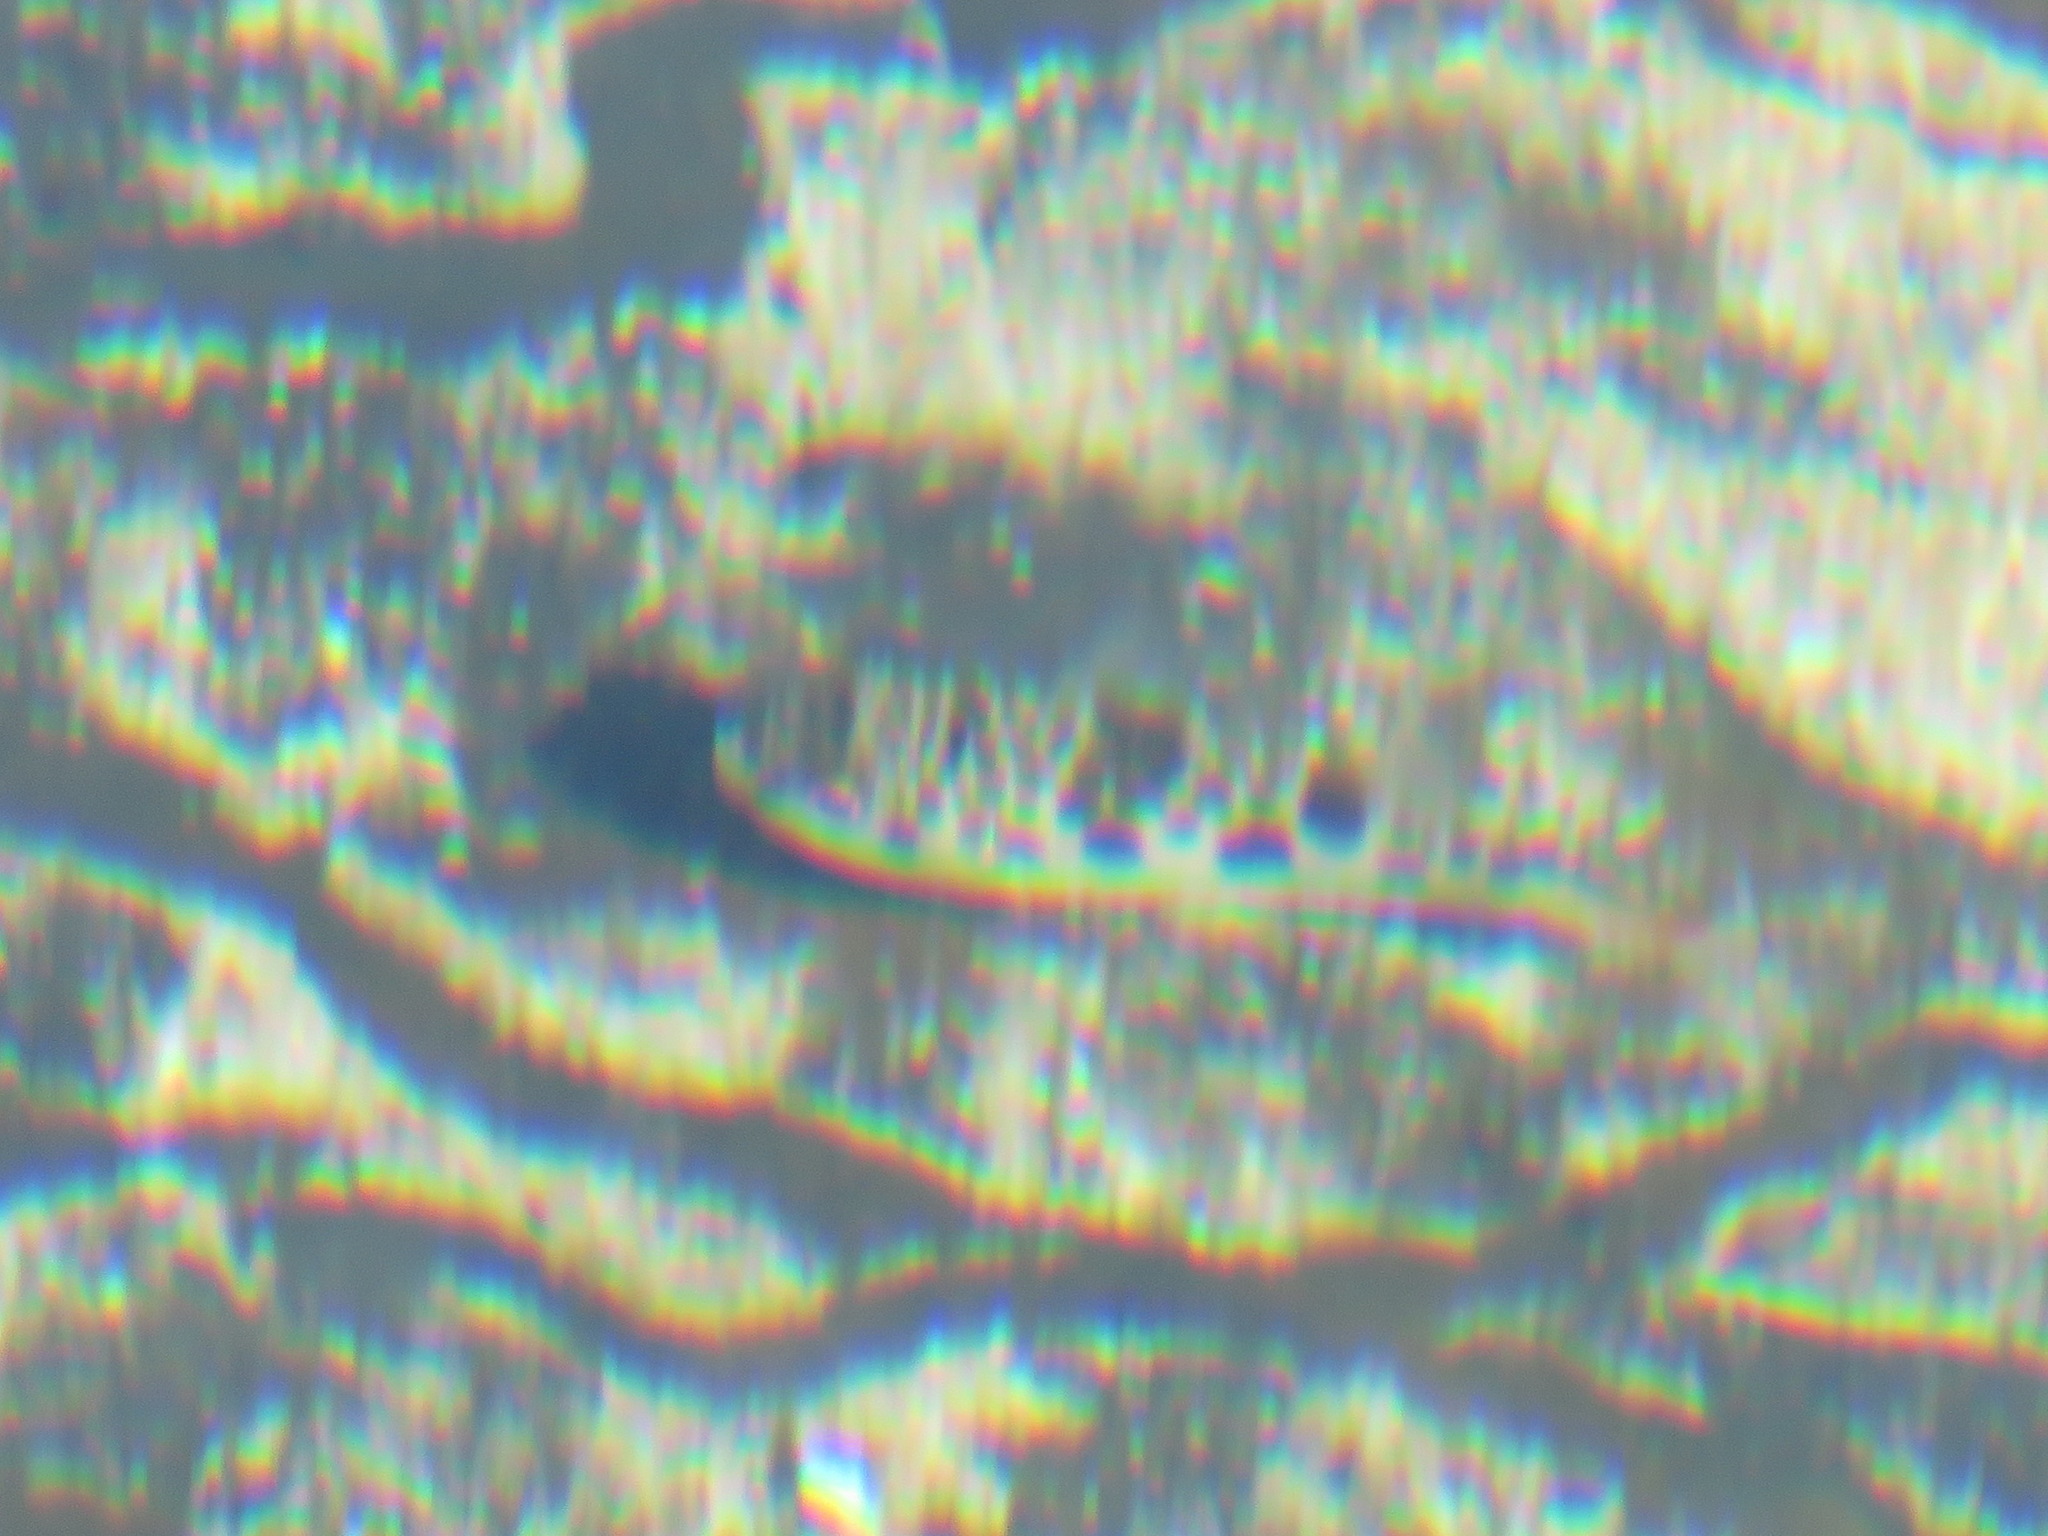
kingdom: Animalia
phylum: Chordata
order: Tetraodontiformes
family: Tetraodontidae
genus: Tetractenos
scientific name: Tetractenos glaber
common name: Smooth toadfish
